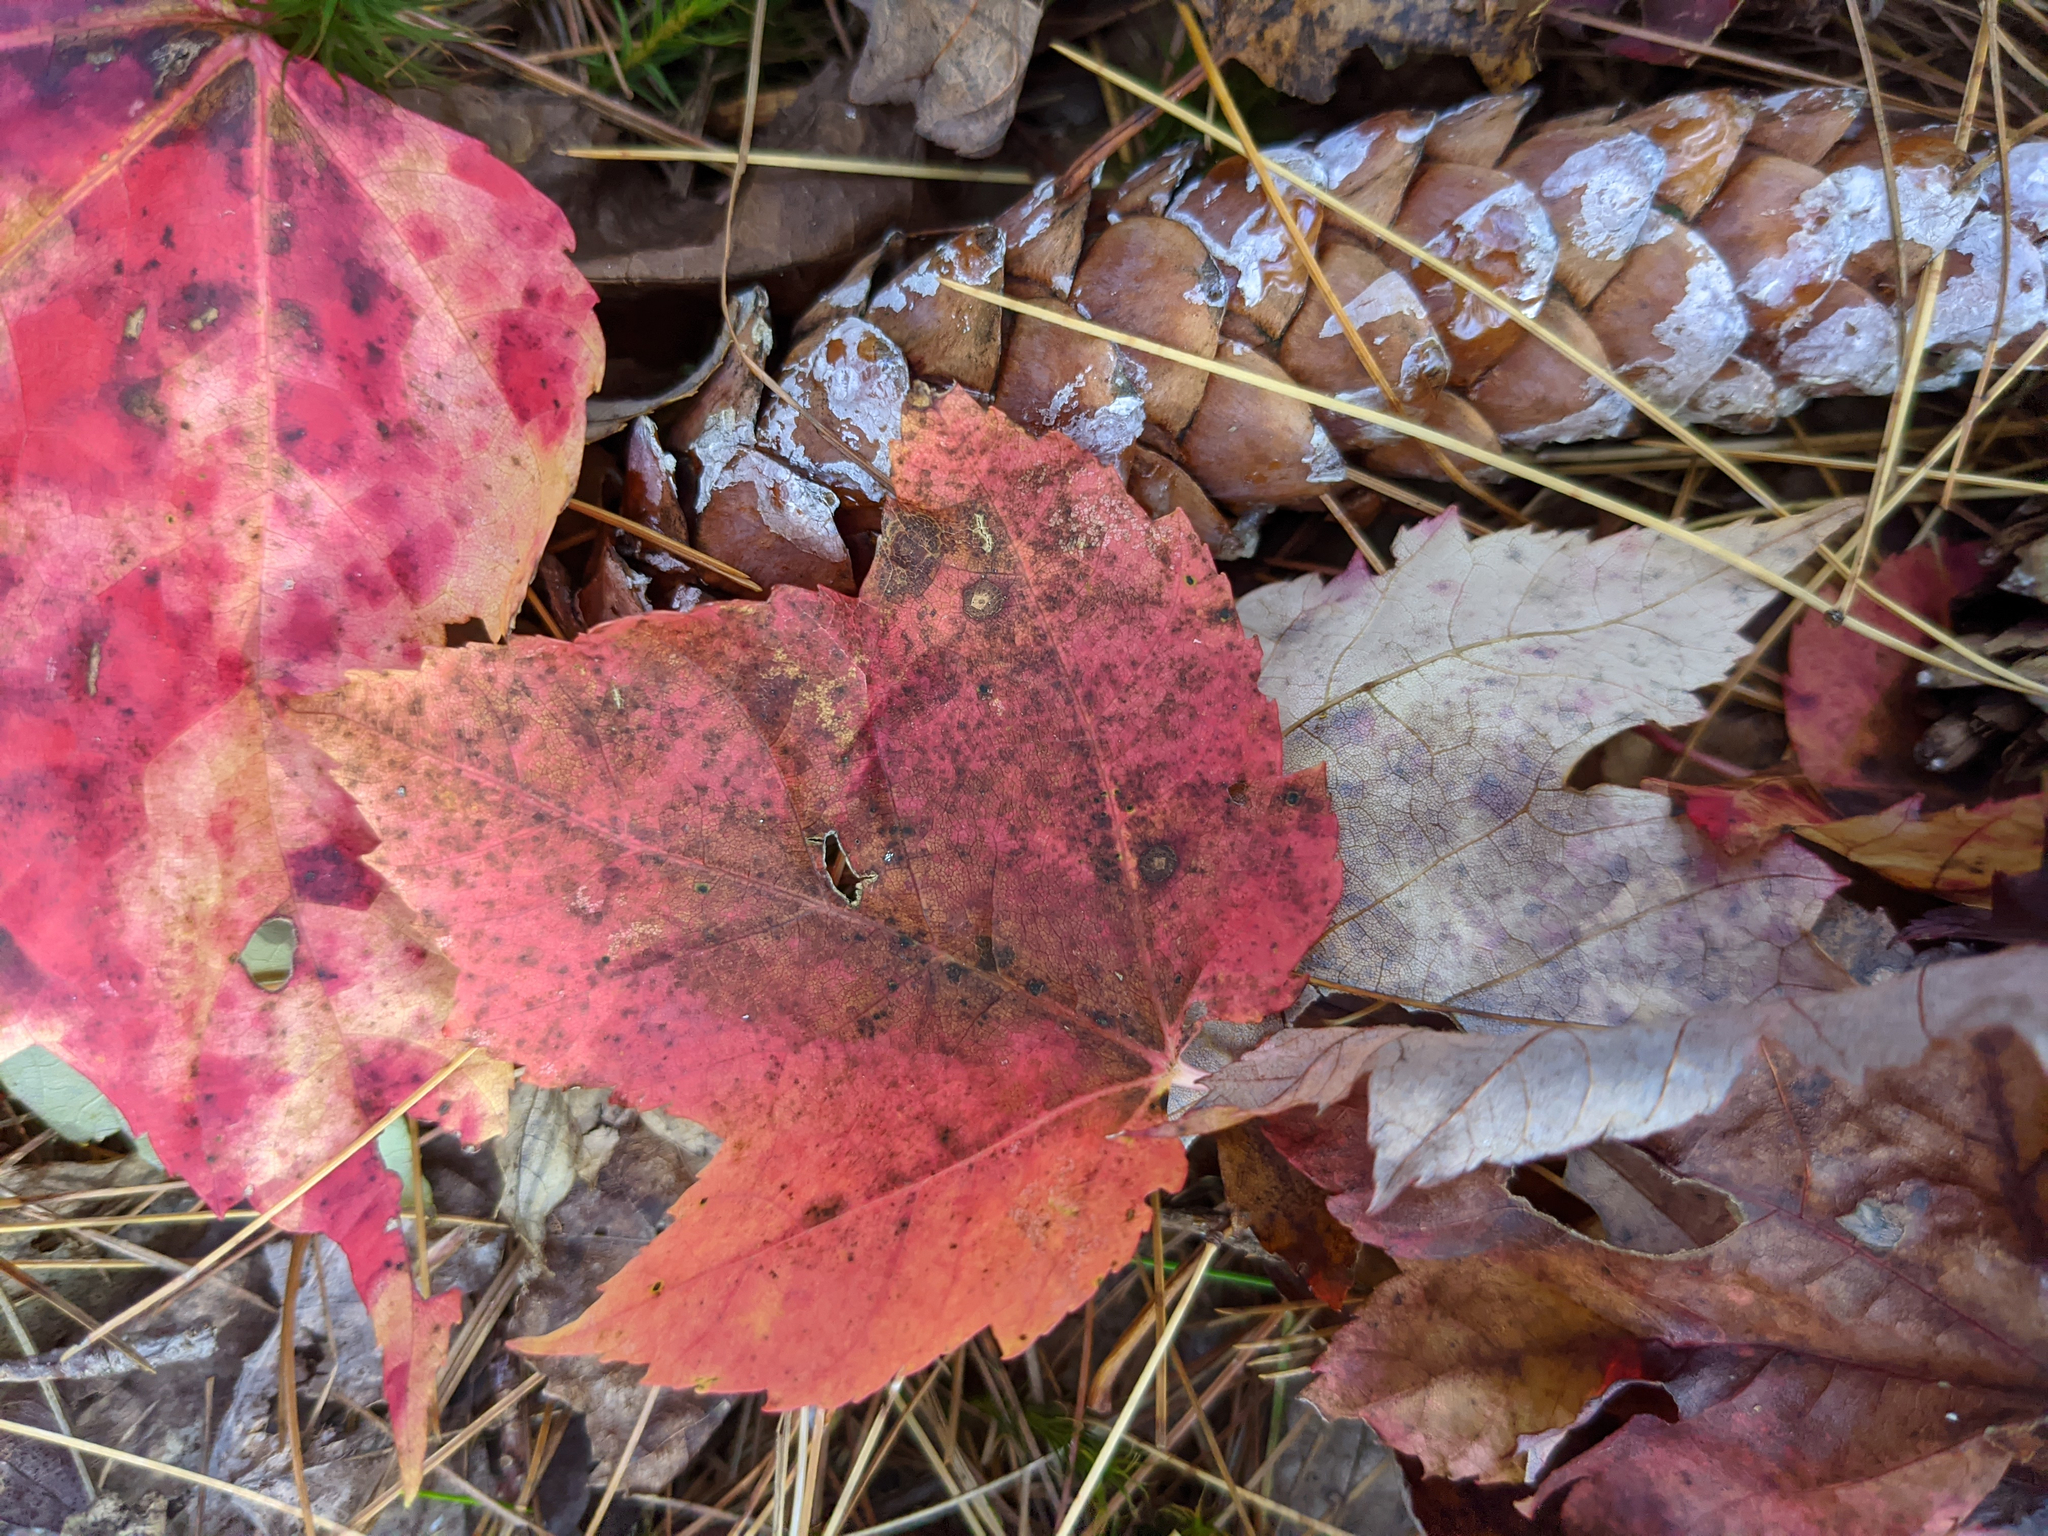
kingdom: Plantae
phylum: Tracheophyta
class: Magnoliopsida
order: Sapindales
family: Sapindaceae
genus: Acer
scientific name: Acer rubrum
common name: Red maple
